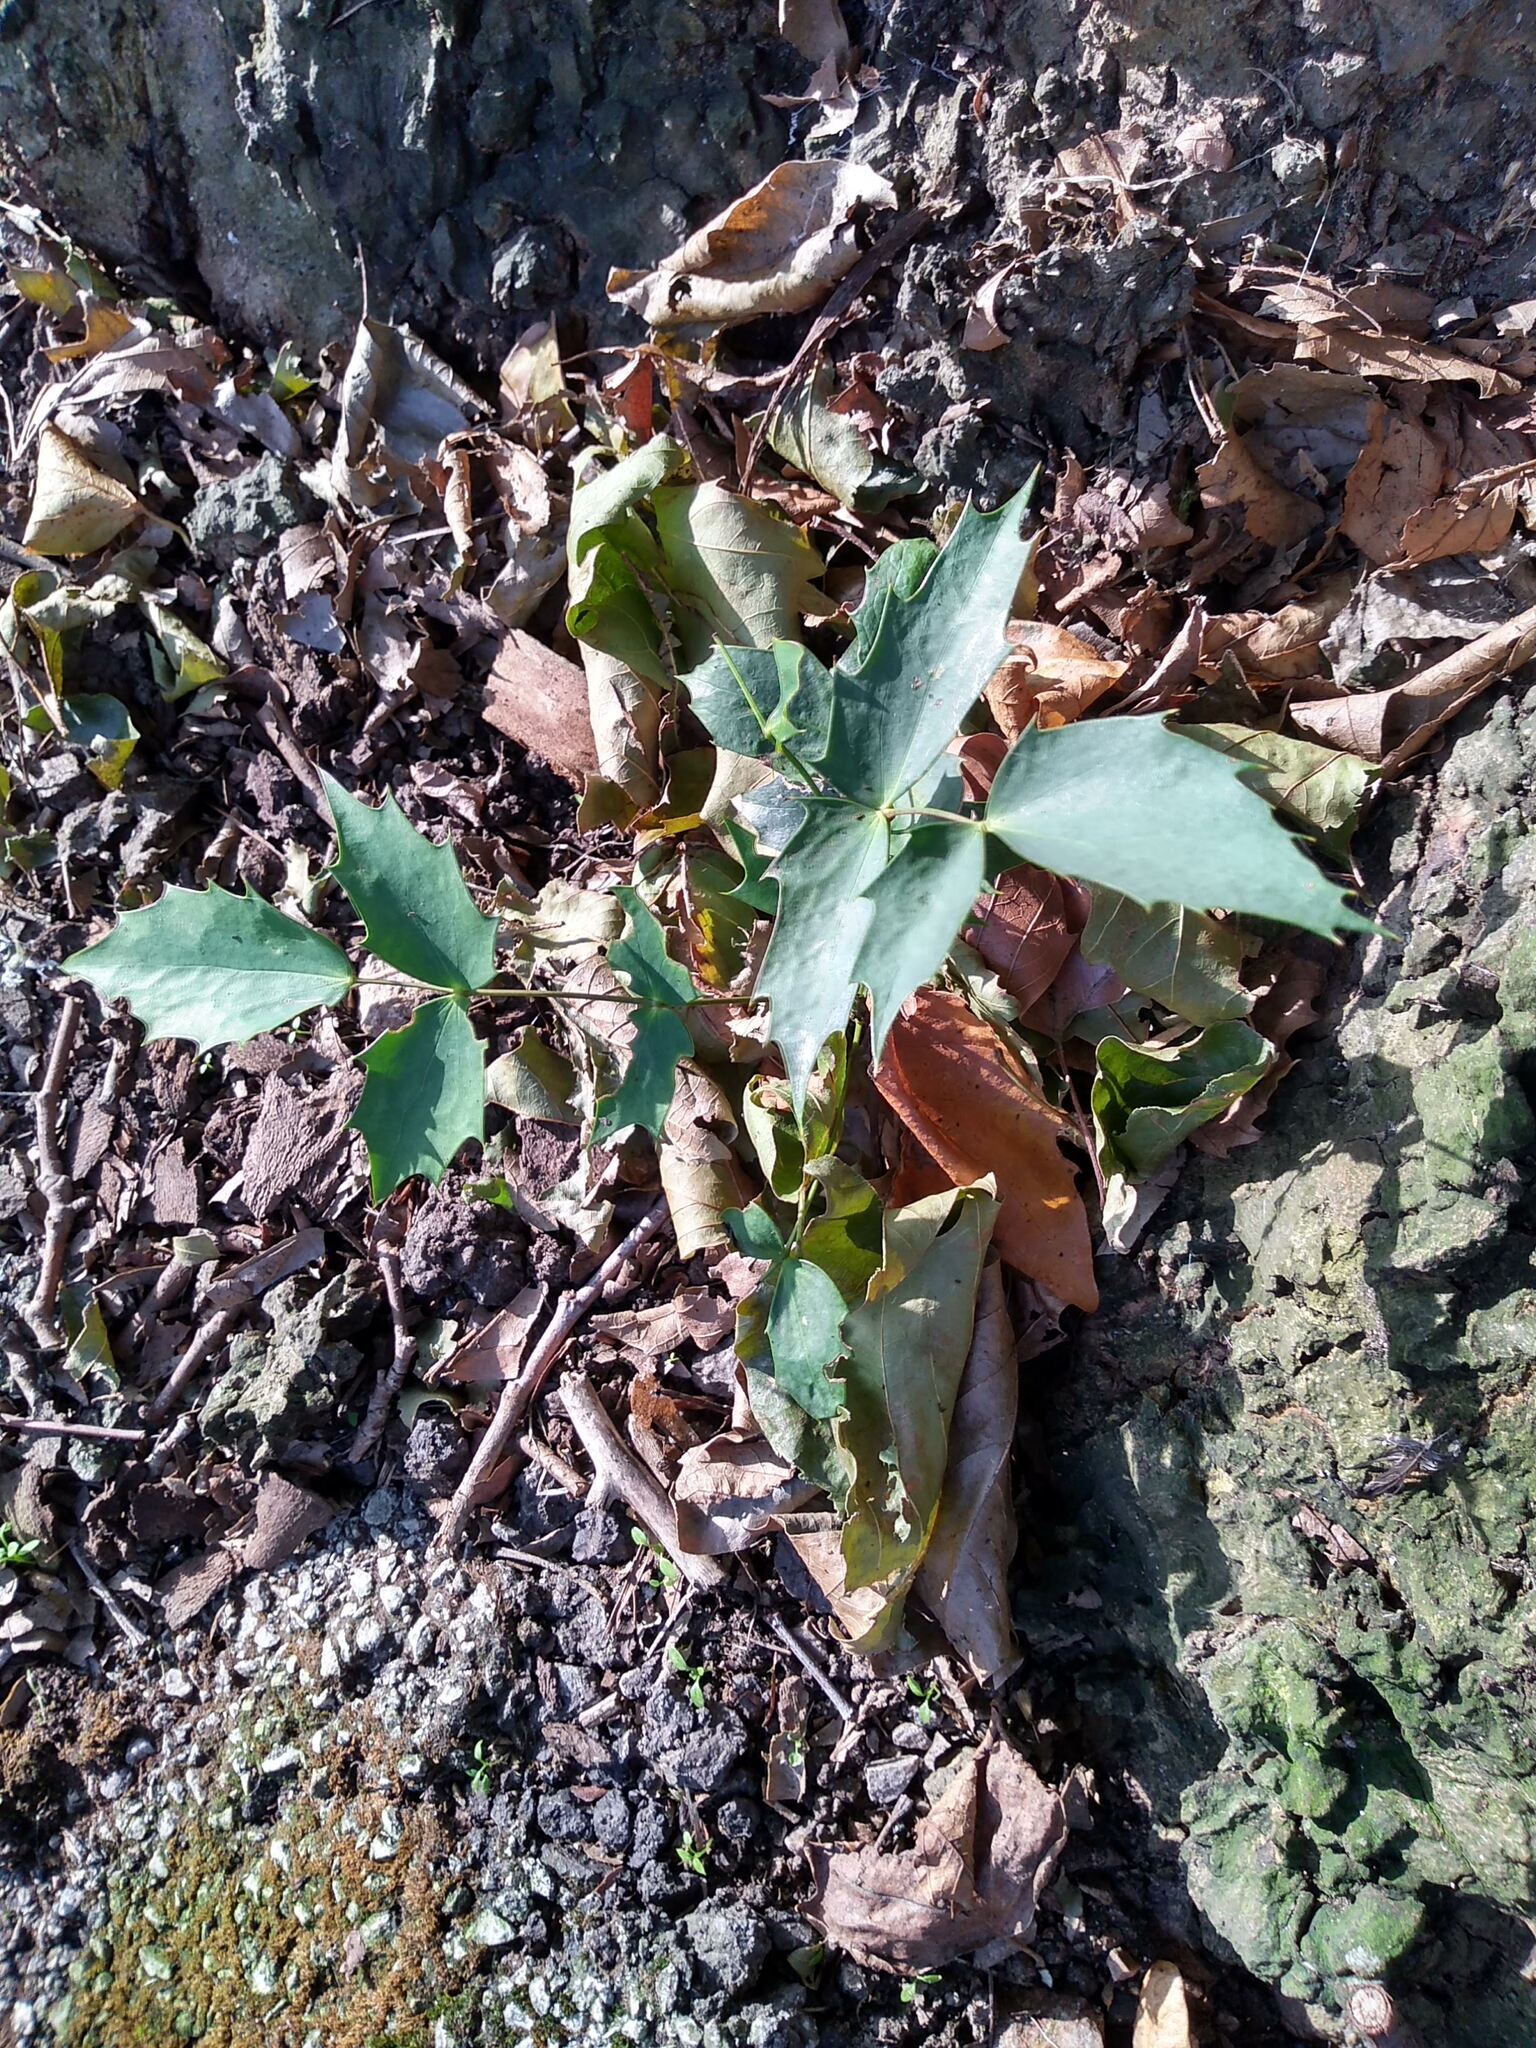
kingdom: Plantae
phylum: Tracheophyta
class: Magnoliopsida
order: Ranunculales
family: Berberidaceae
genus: Berberis
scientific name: Berberis hortensis
